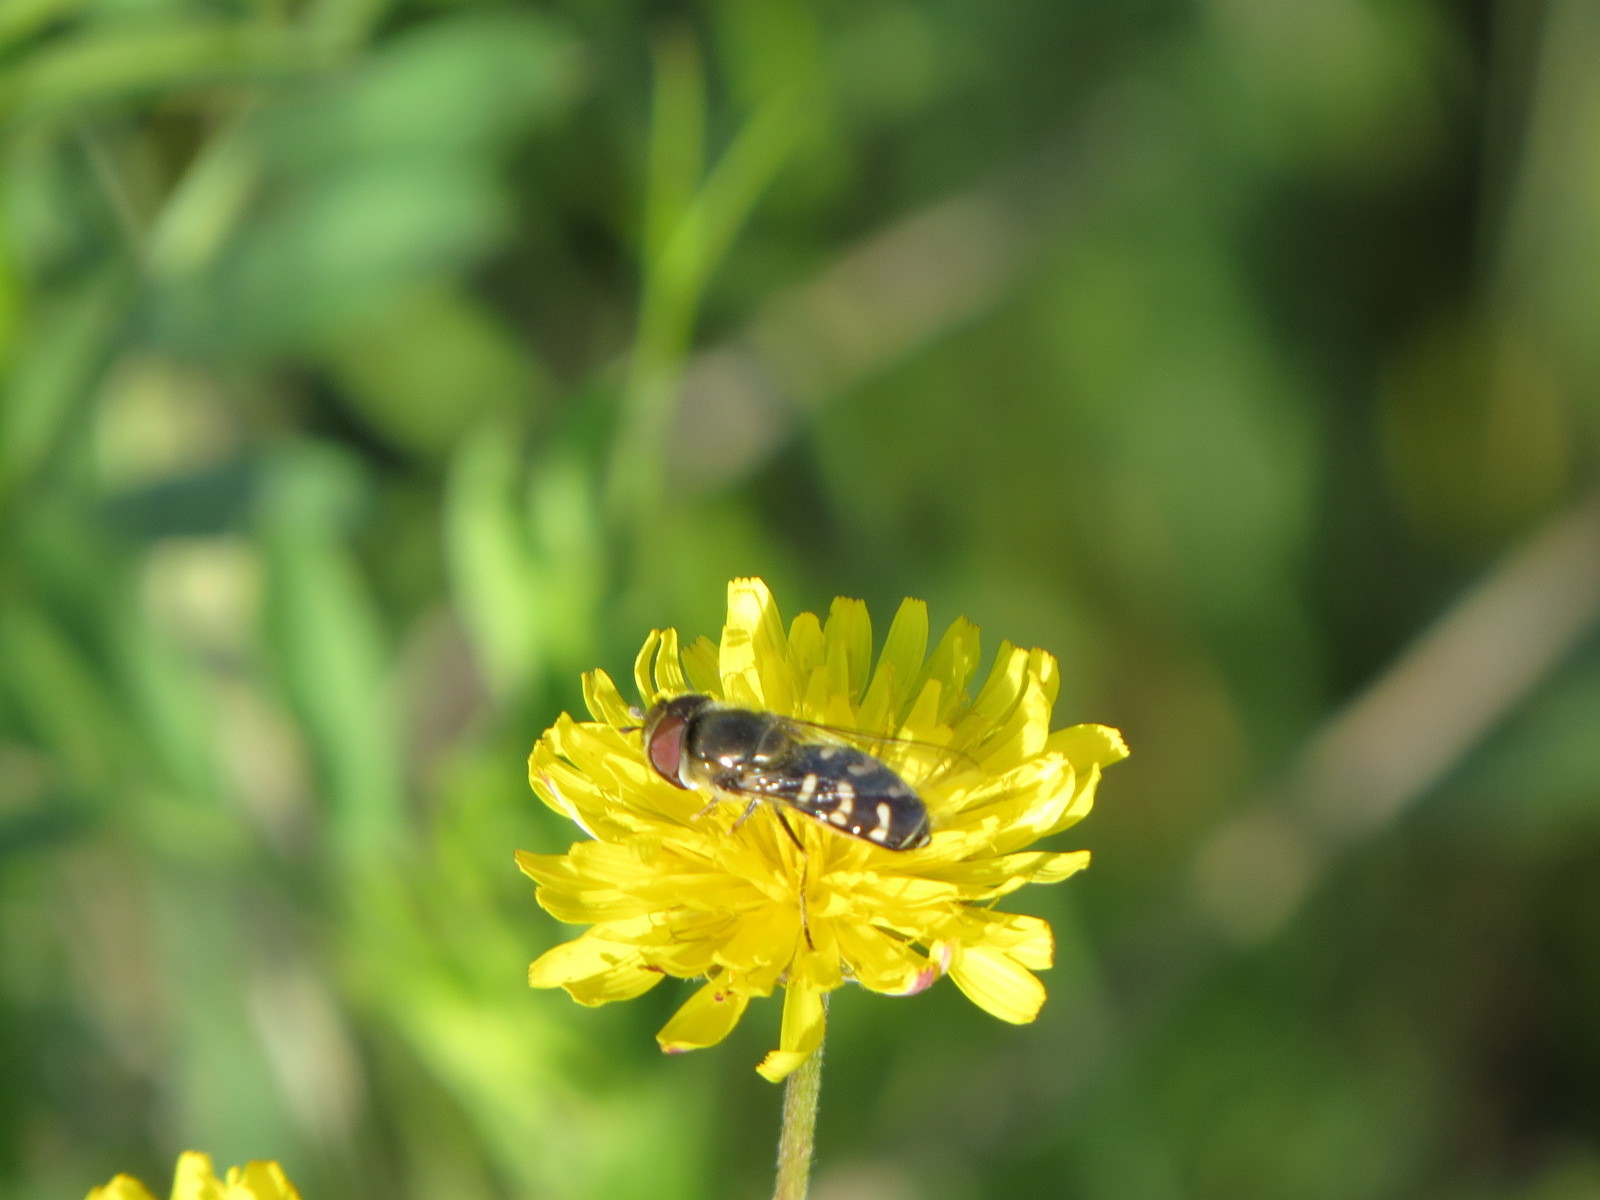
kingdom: Animalia
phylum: Arthropoda
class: Insecta
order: Diptera
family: Syrphidae
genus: Scaeva
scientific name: Scaeva affinis
